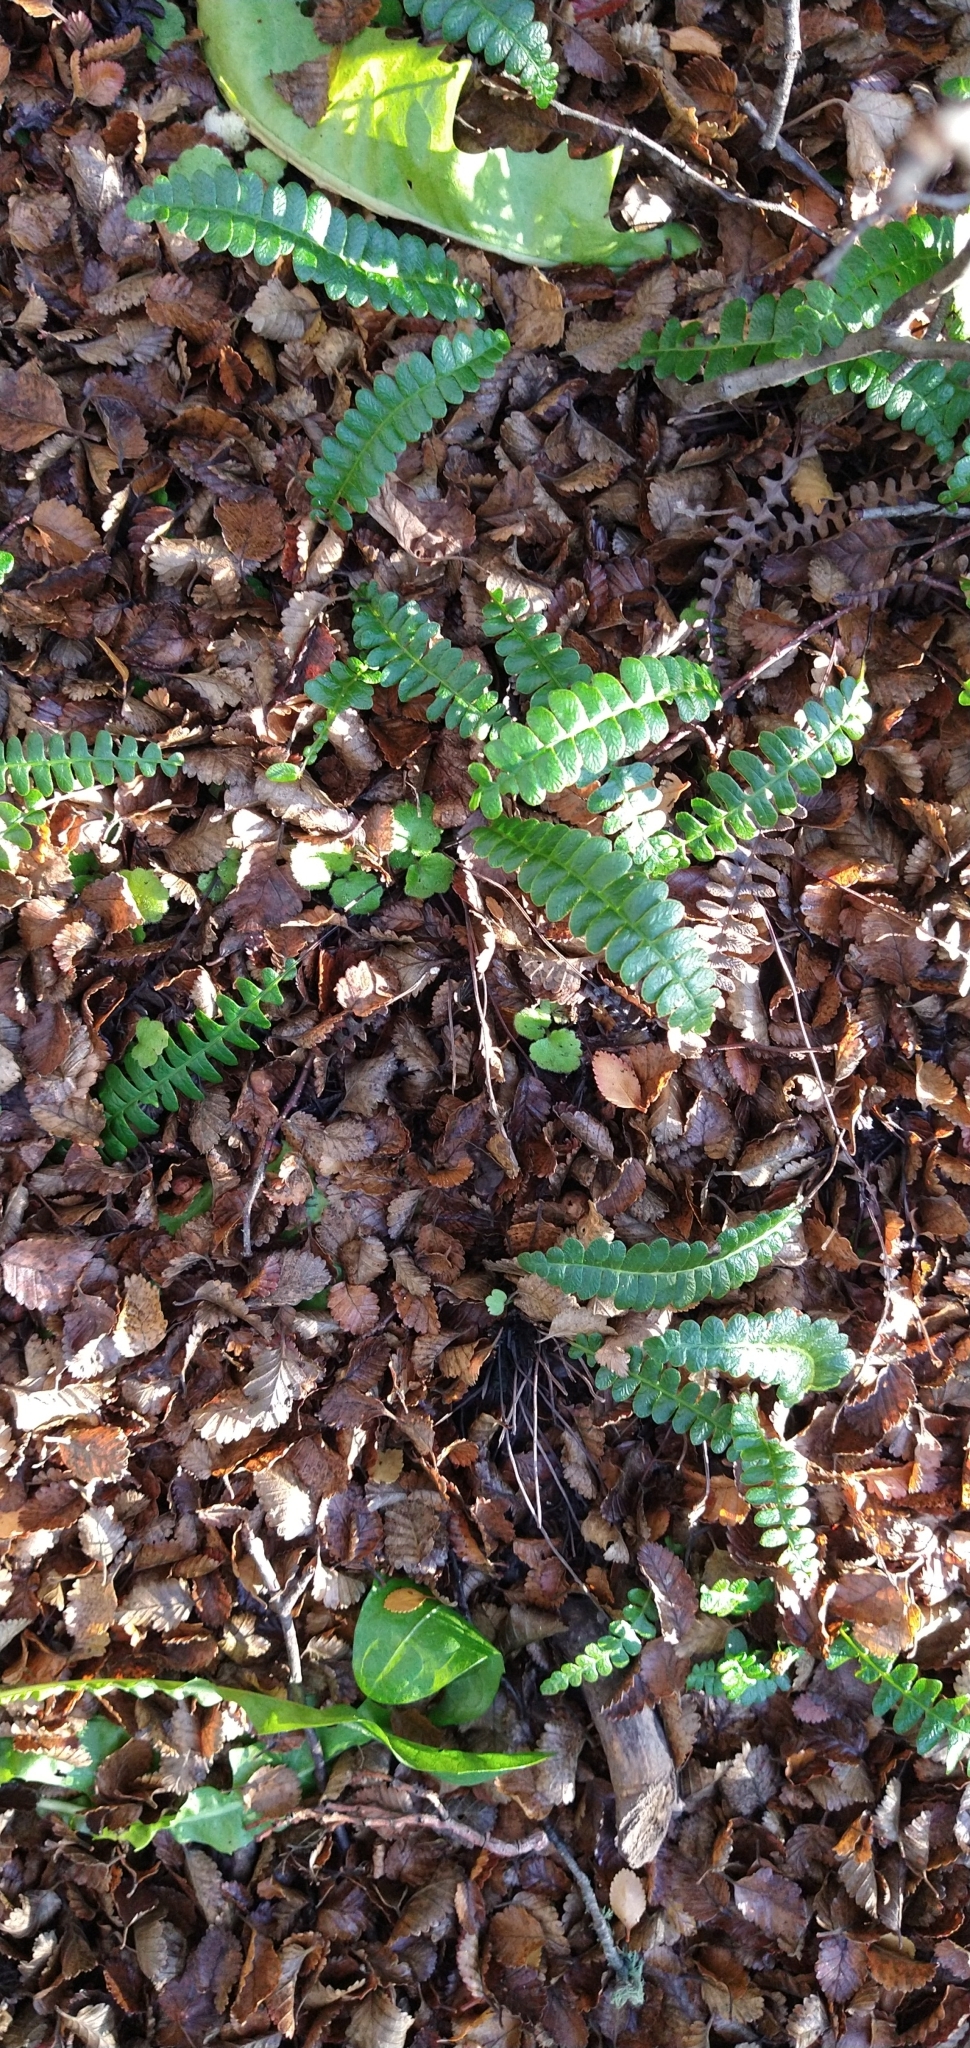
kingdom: Plantae
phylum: Tracheophyta
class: Polypodiopsida
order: Polypodiales
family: Blechnaceae
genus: Austroblechnum
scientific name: Austroblechnum penna-marina
